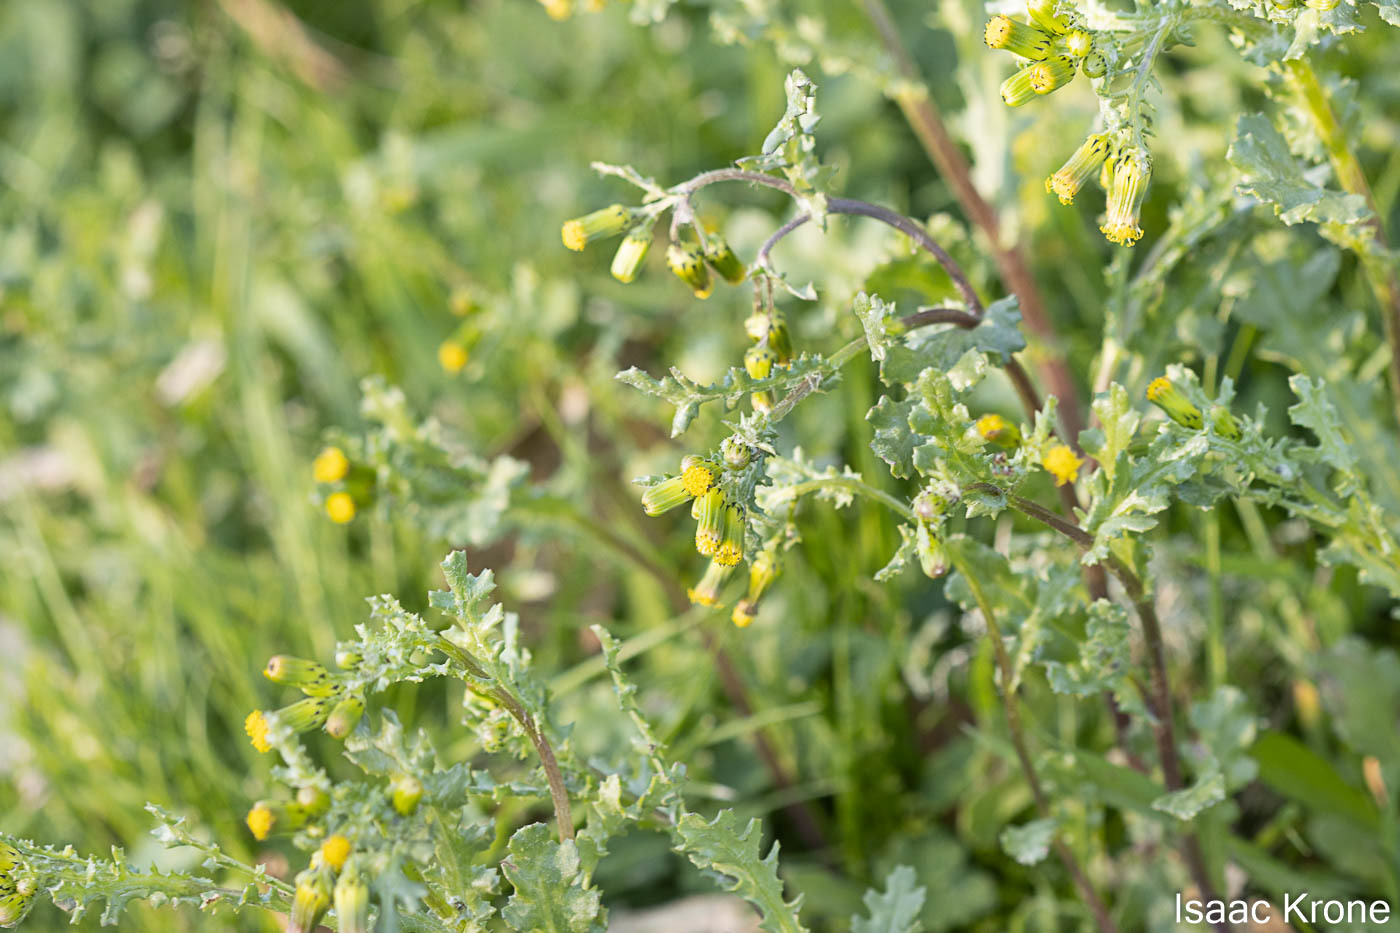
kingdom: Plantae
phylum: Tracheophyta
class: Magnoliopsida
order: Asterales
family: Asteraceae
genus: Senecio
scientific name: Senecio vulgaris
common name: Old-man-in-the-spring
